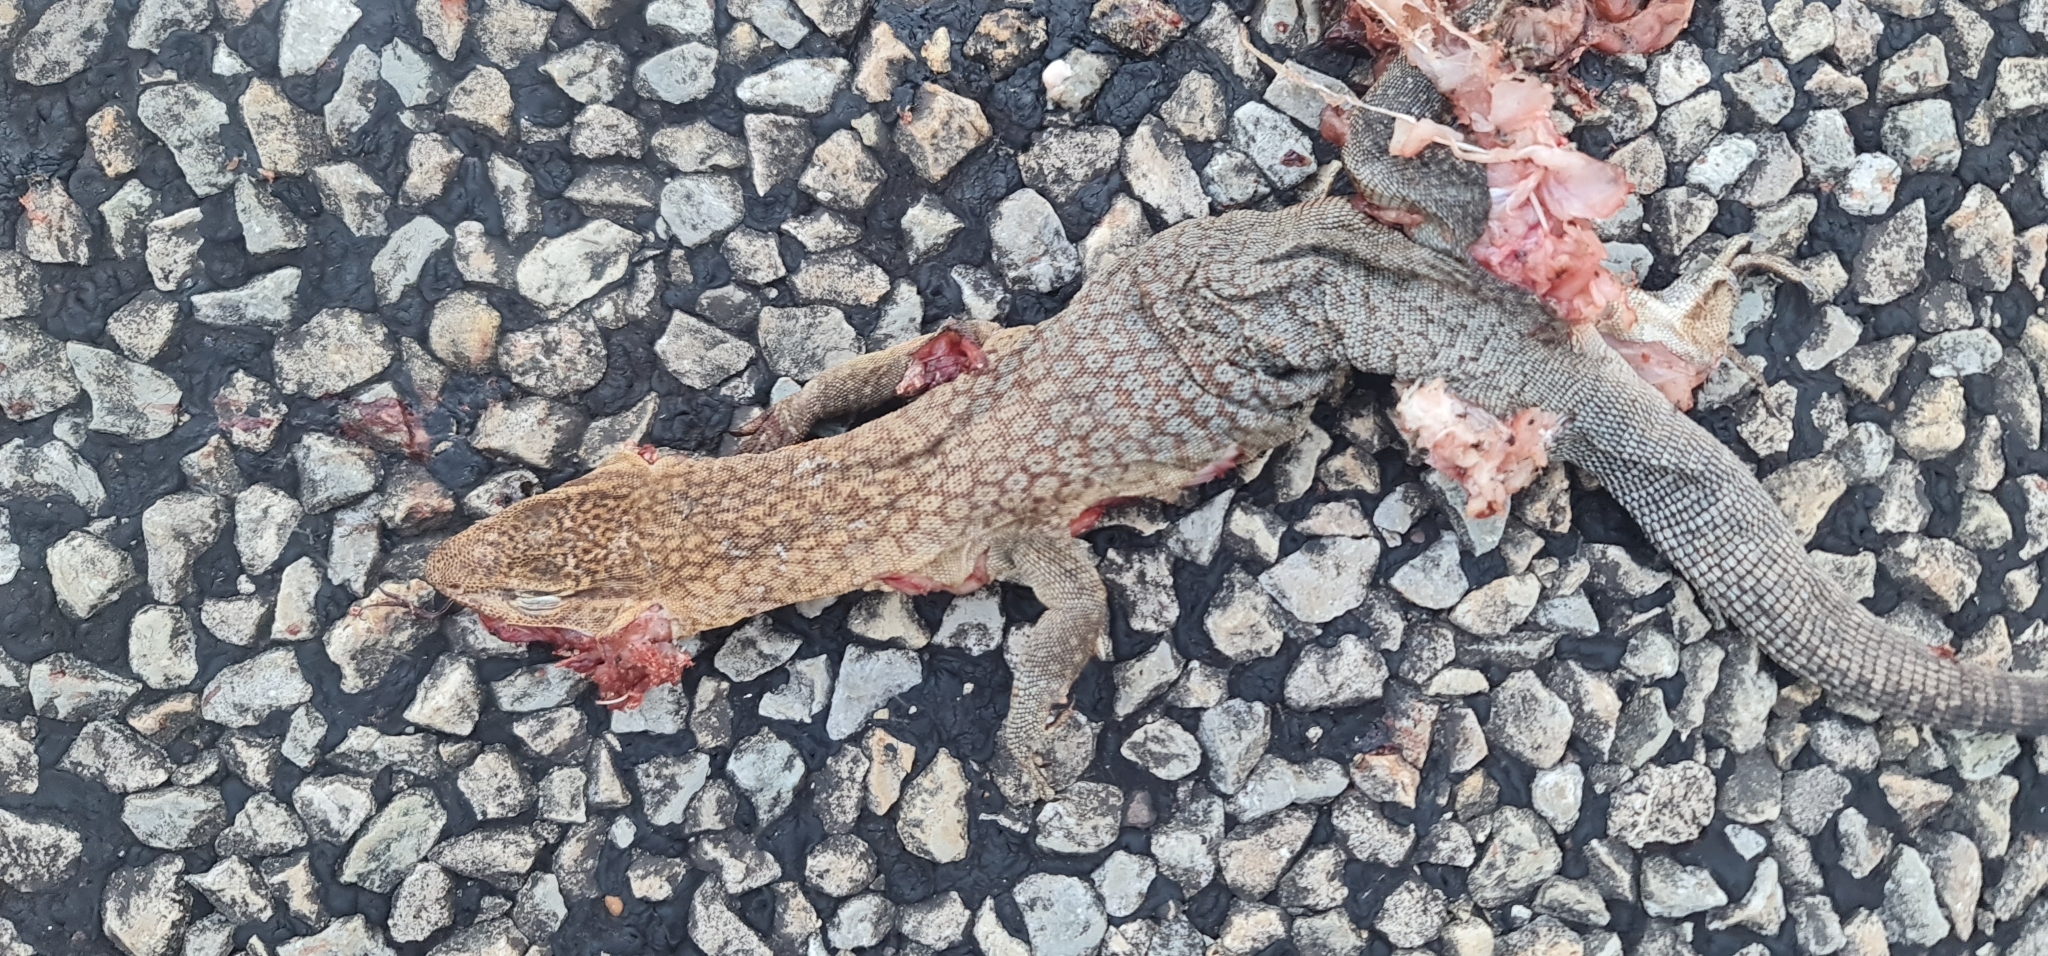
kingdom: Animalia
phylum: Chordata
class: Squamata
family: Varanidae
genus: Varanus
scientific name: Varanus tristis
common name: Arid monitor
